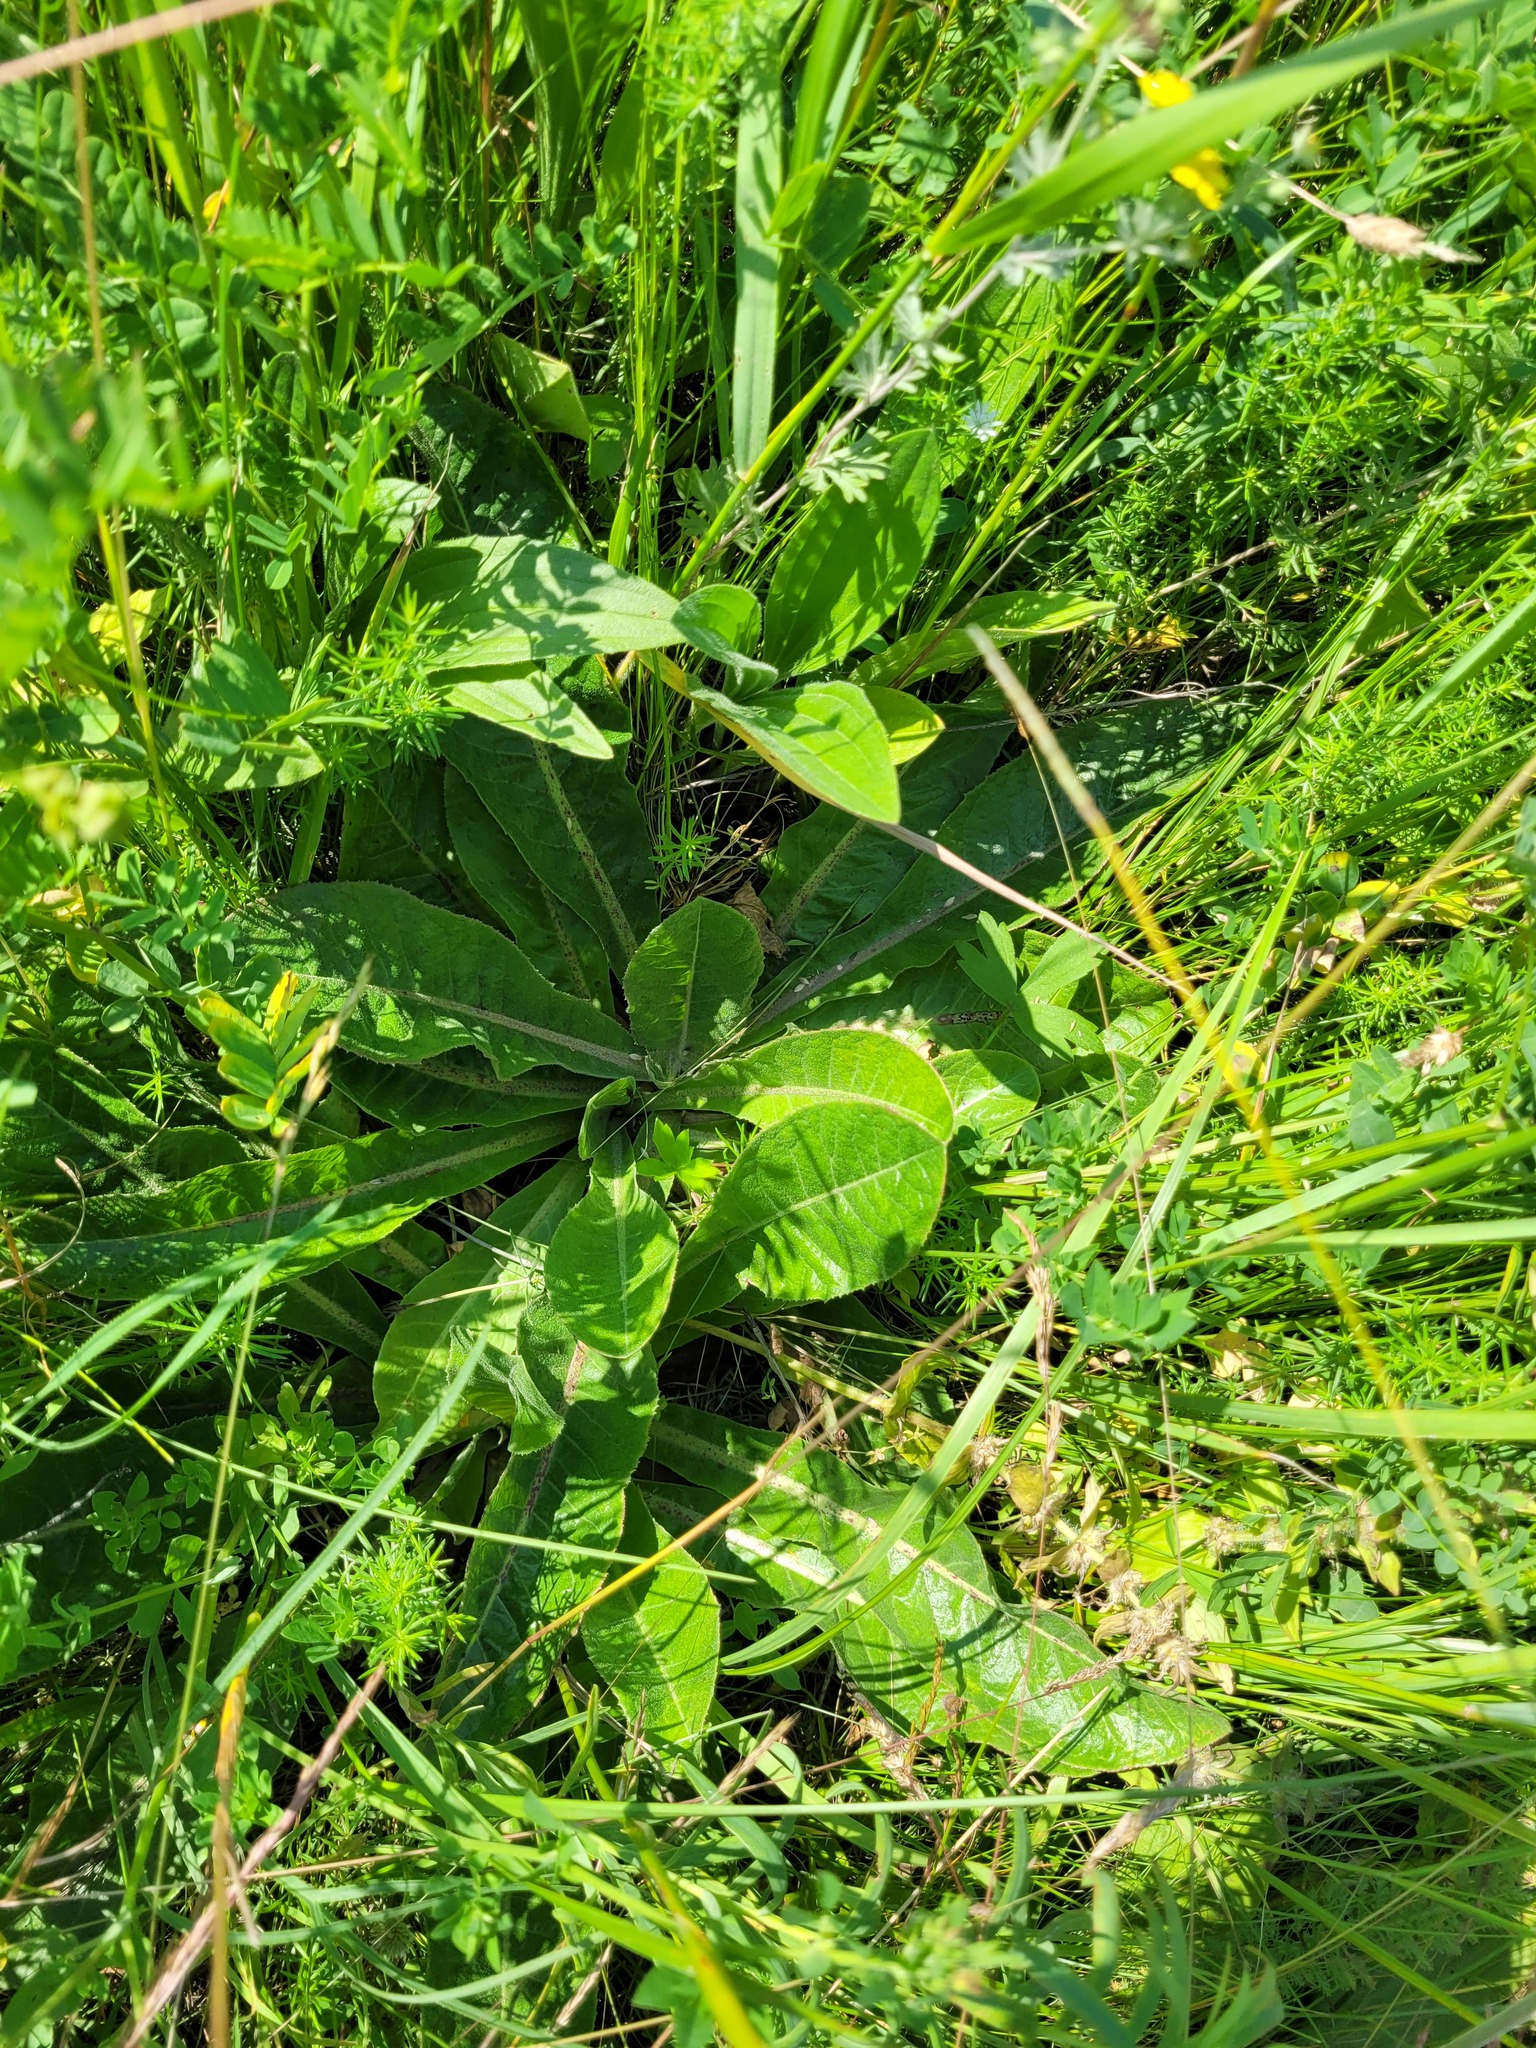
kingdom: Plantae
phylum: Tracheophyta
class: Magnoliopsida
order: Asterales
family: Asteraceae
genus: Taraxacum
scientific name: Taraxacum serotinum
